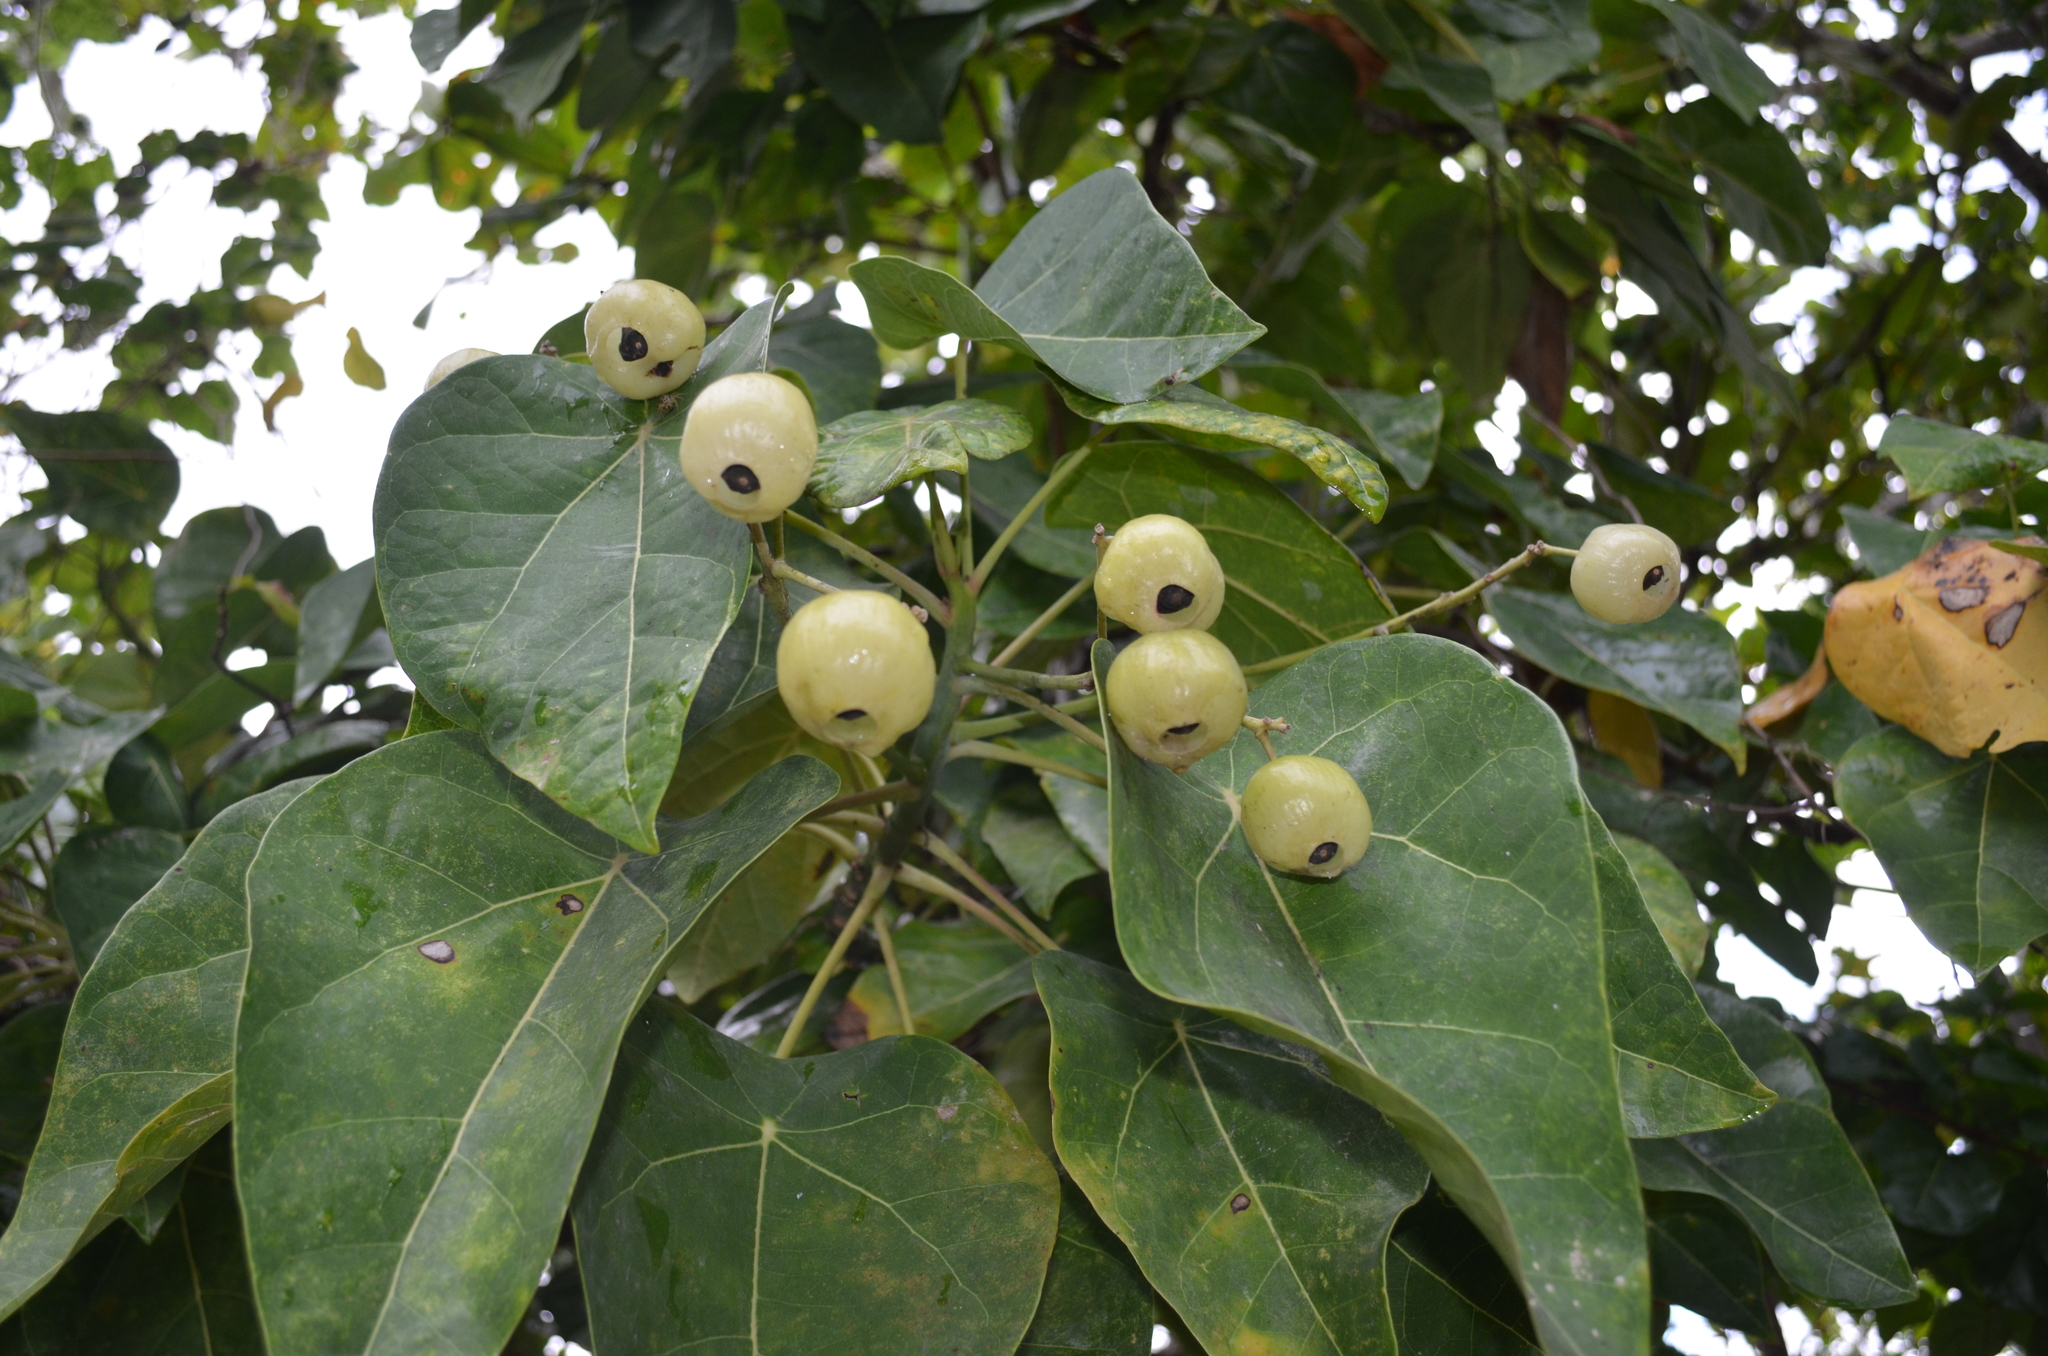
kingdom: Plantae
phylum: Tracheophyta
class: Magnoliopsida
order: Laurales
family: Hernandiaceae
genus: Hernandia
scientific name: Hernandia nymphaeifolia
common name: Sea hearse
